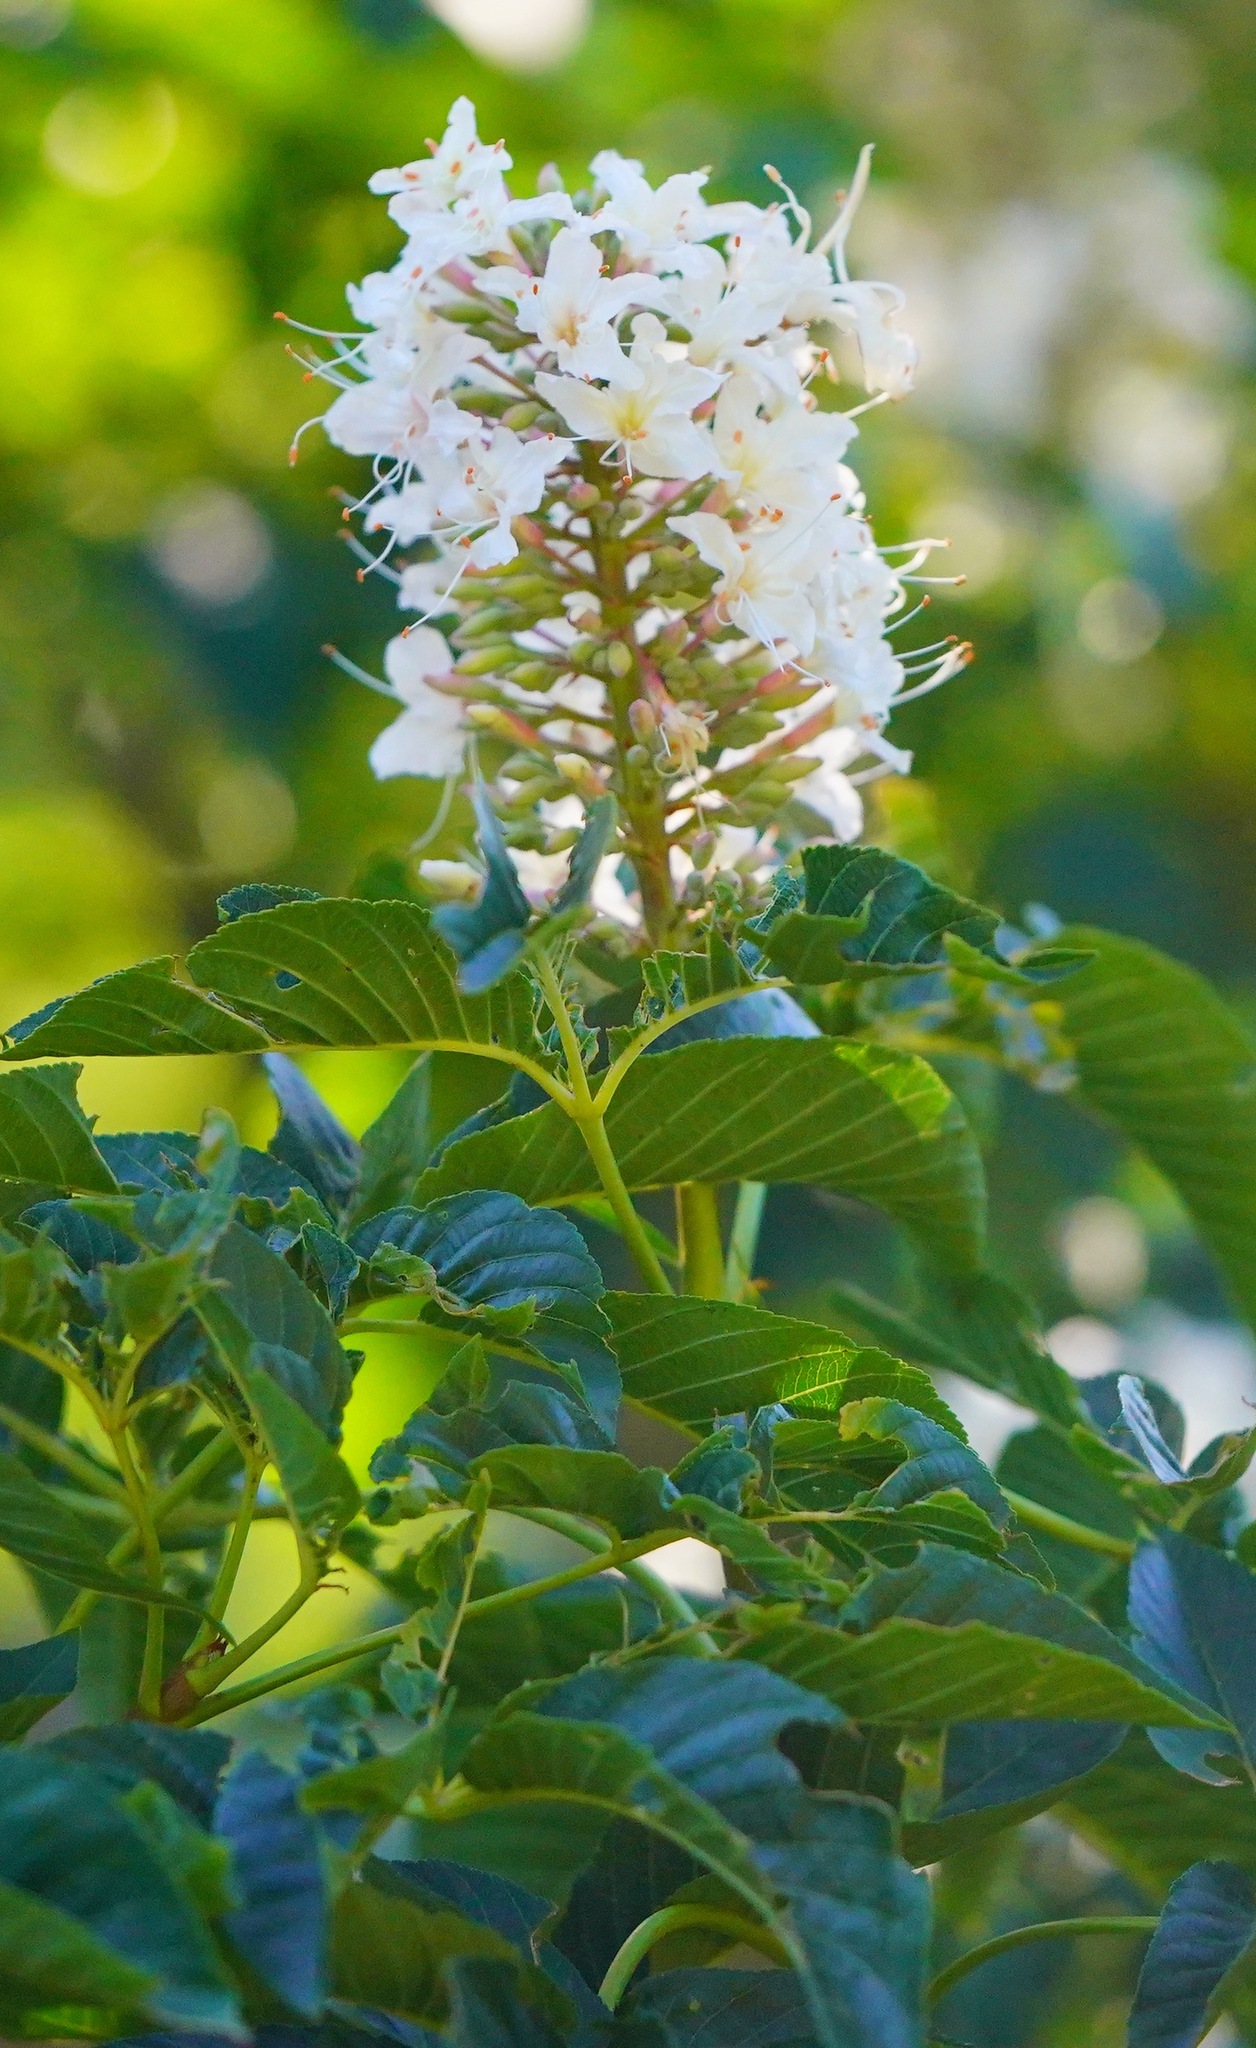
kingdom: Plantae
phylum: Tracheophyta
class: Magnoliopsida
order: Sapindales
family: Sapindaceae
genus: Aesculus
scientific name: Aesculus californica
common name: California buckeye
